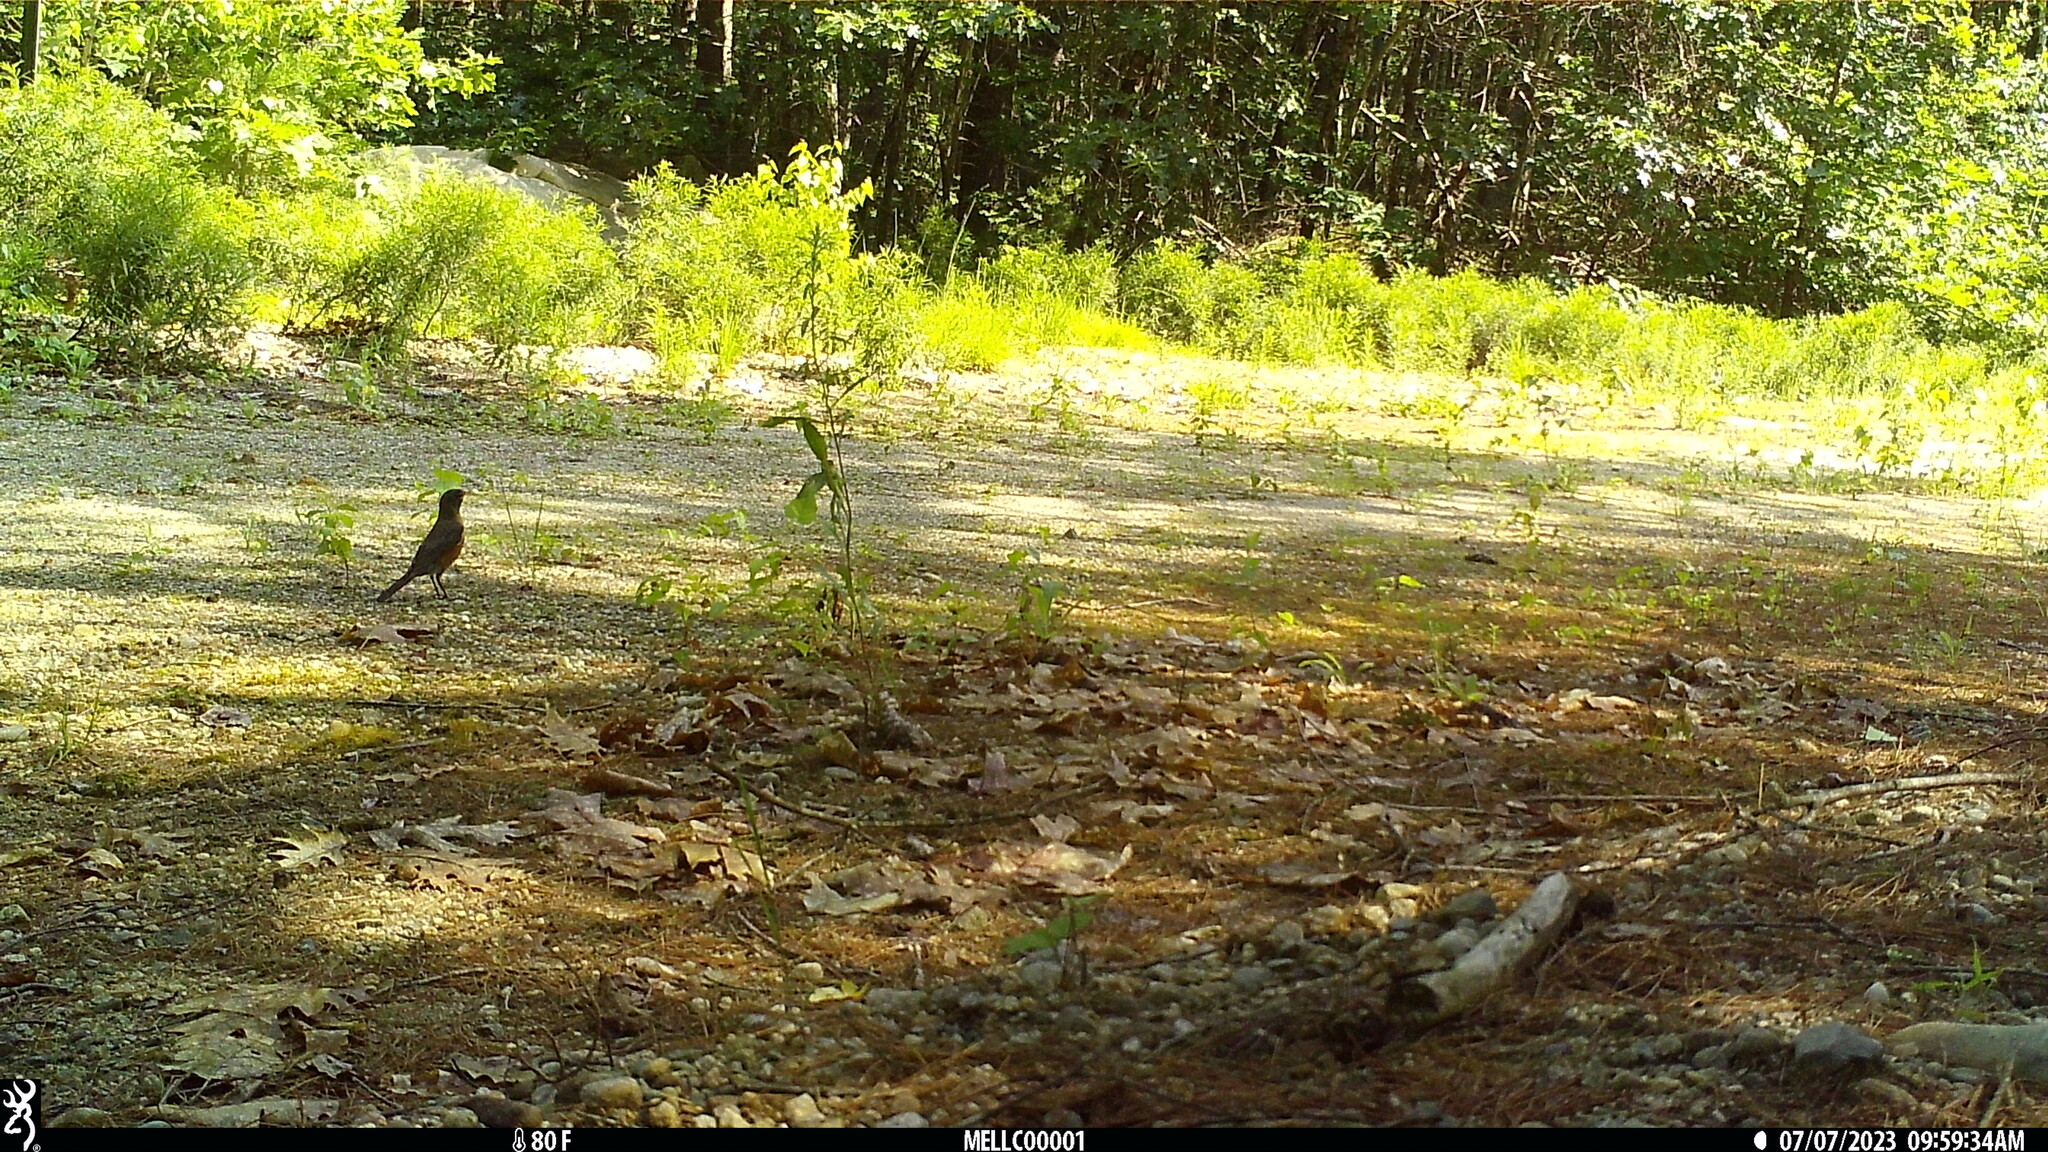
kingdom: Animalia
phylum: Chordata
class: Aves
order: Passeriformes
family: Turdidae
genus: Turdus
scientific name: Turdus migratorius
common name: American robin
